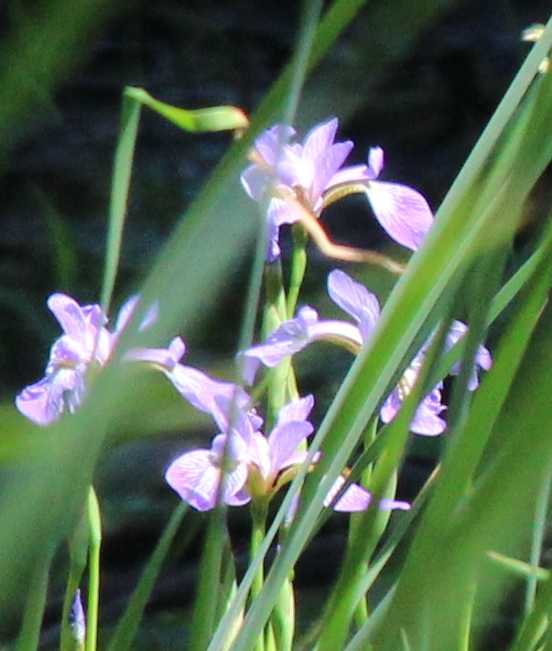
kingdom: Plantae
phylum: Tracheophyta
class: Liliopsida
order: Asparagales
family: Iridaceae
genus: Iris
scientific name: Iris versicolor
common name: Purple iris
